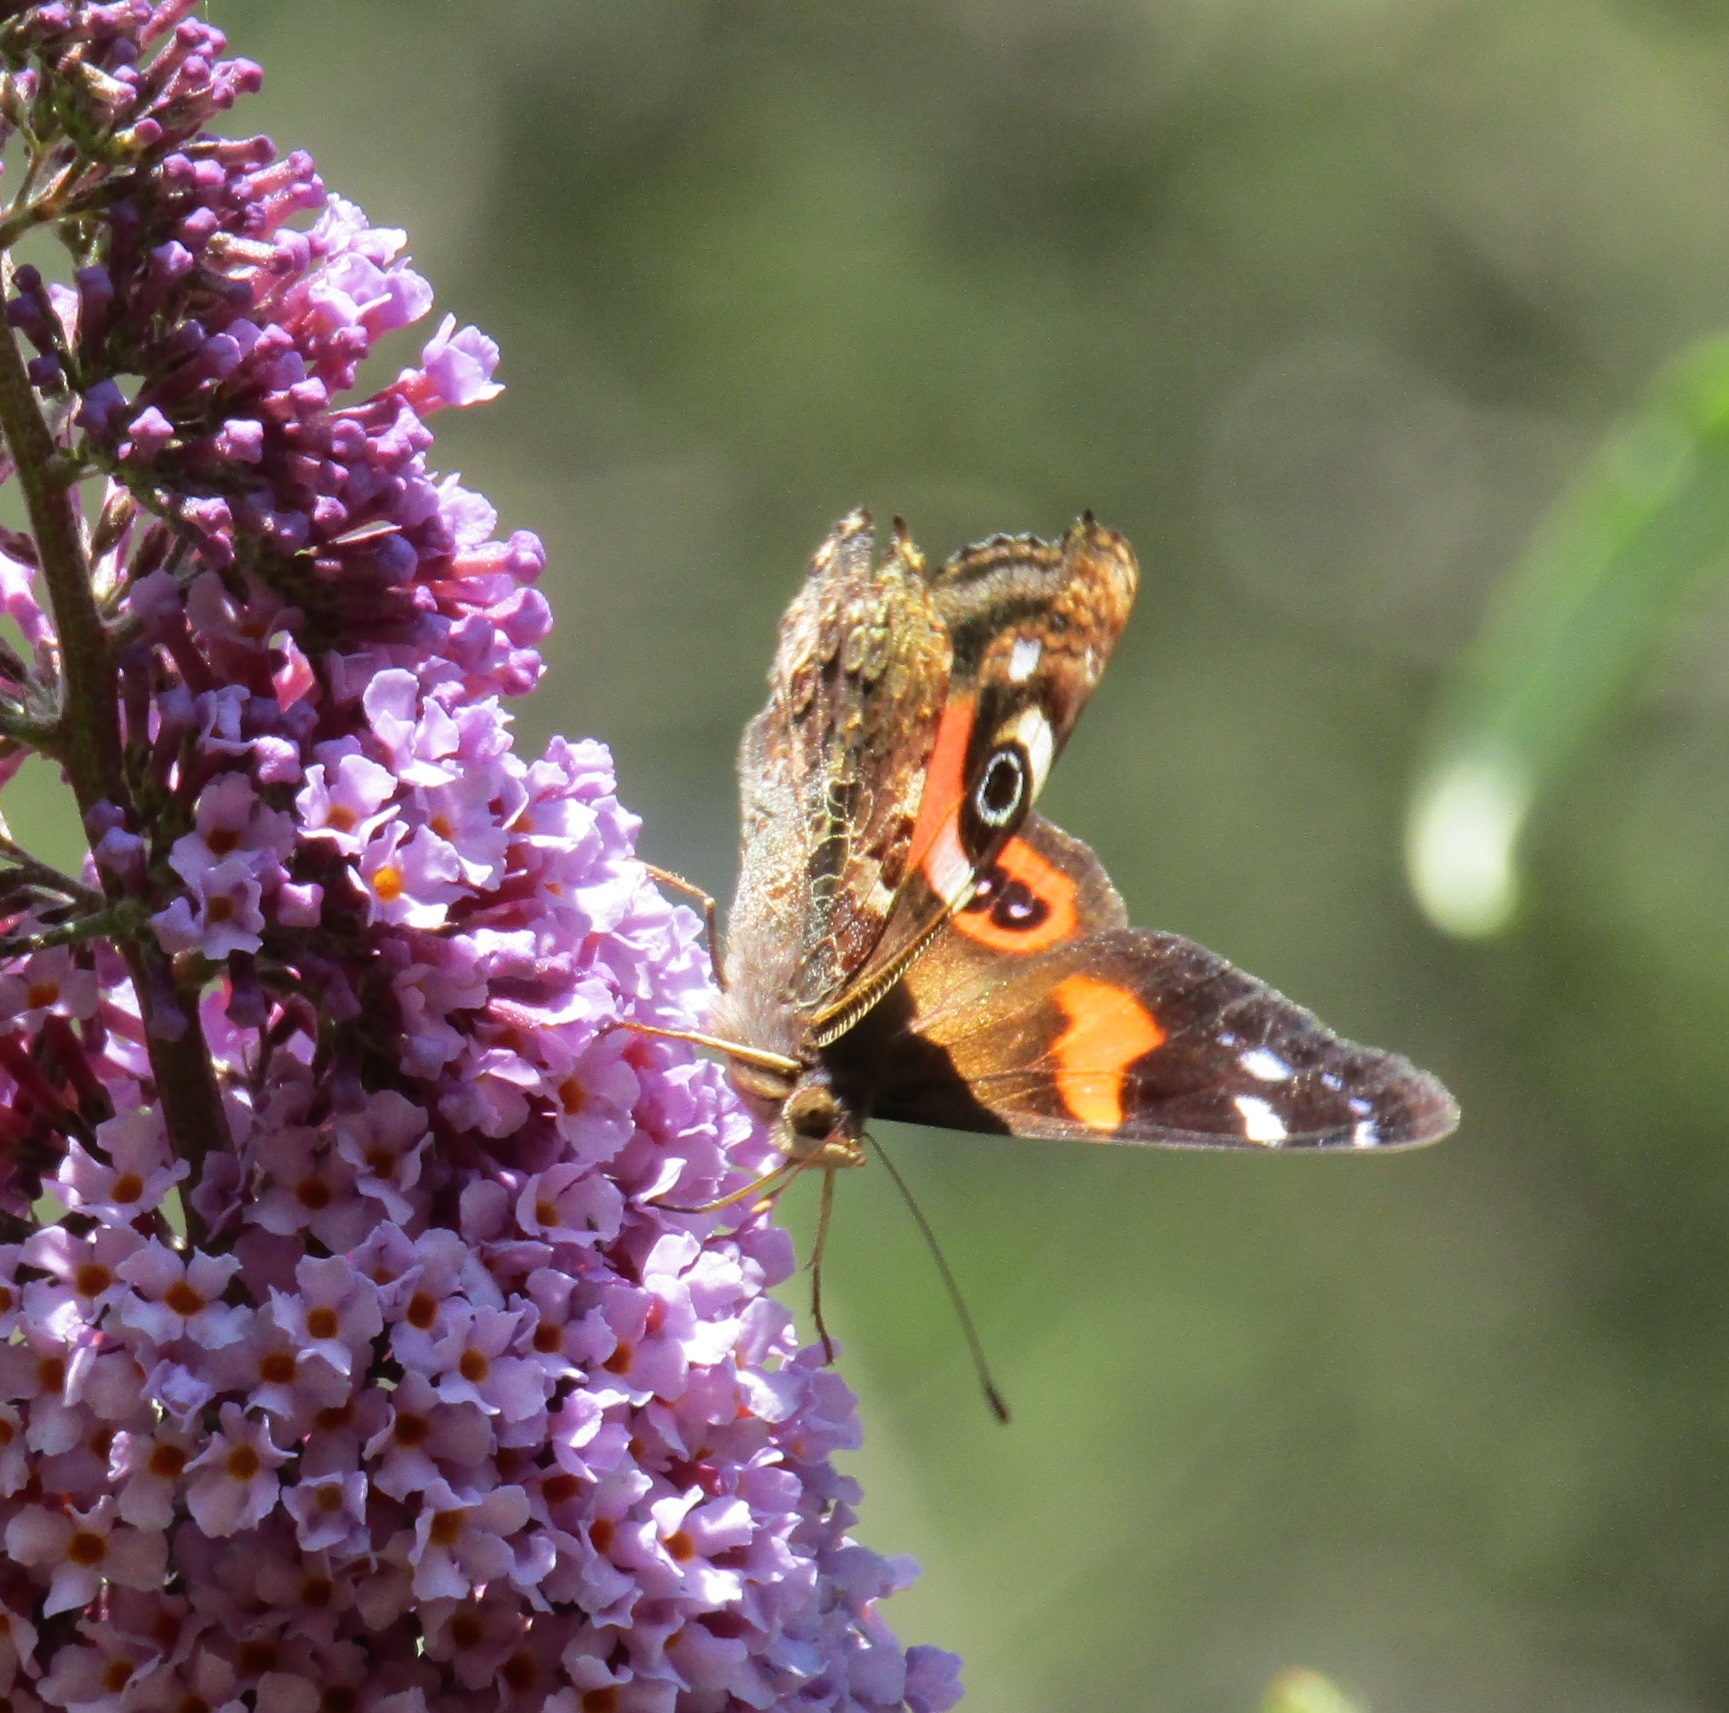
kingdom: Animalia
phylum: Arthropoda
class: Insecta
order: Lepidoptera
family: Nymphalidae
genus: Vanessa
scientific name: Vanessa gonerilla
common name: New zealand red admiral
